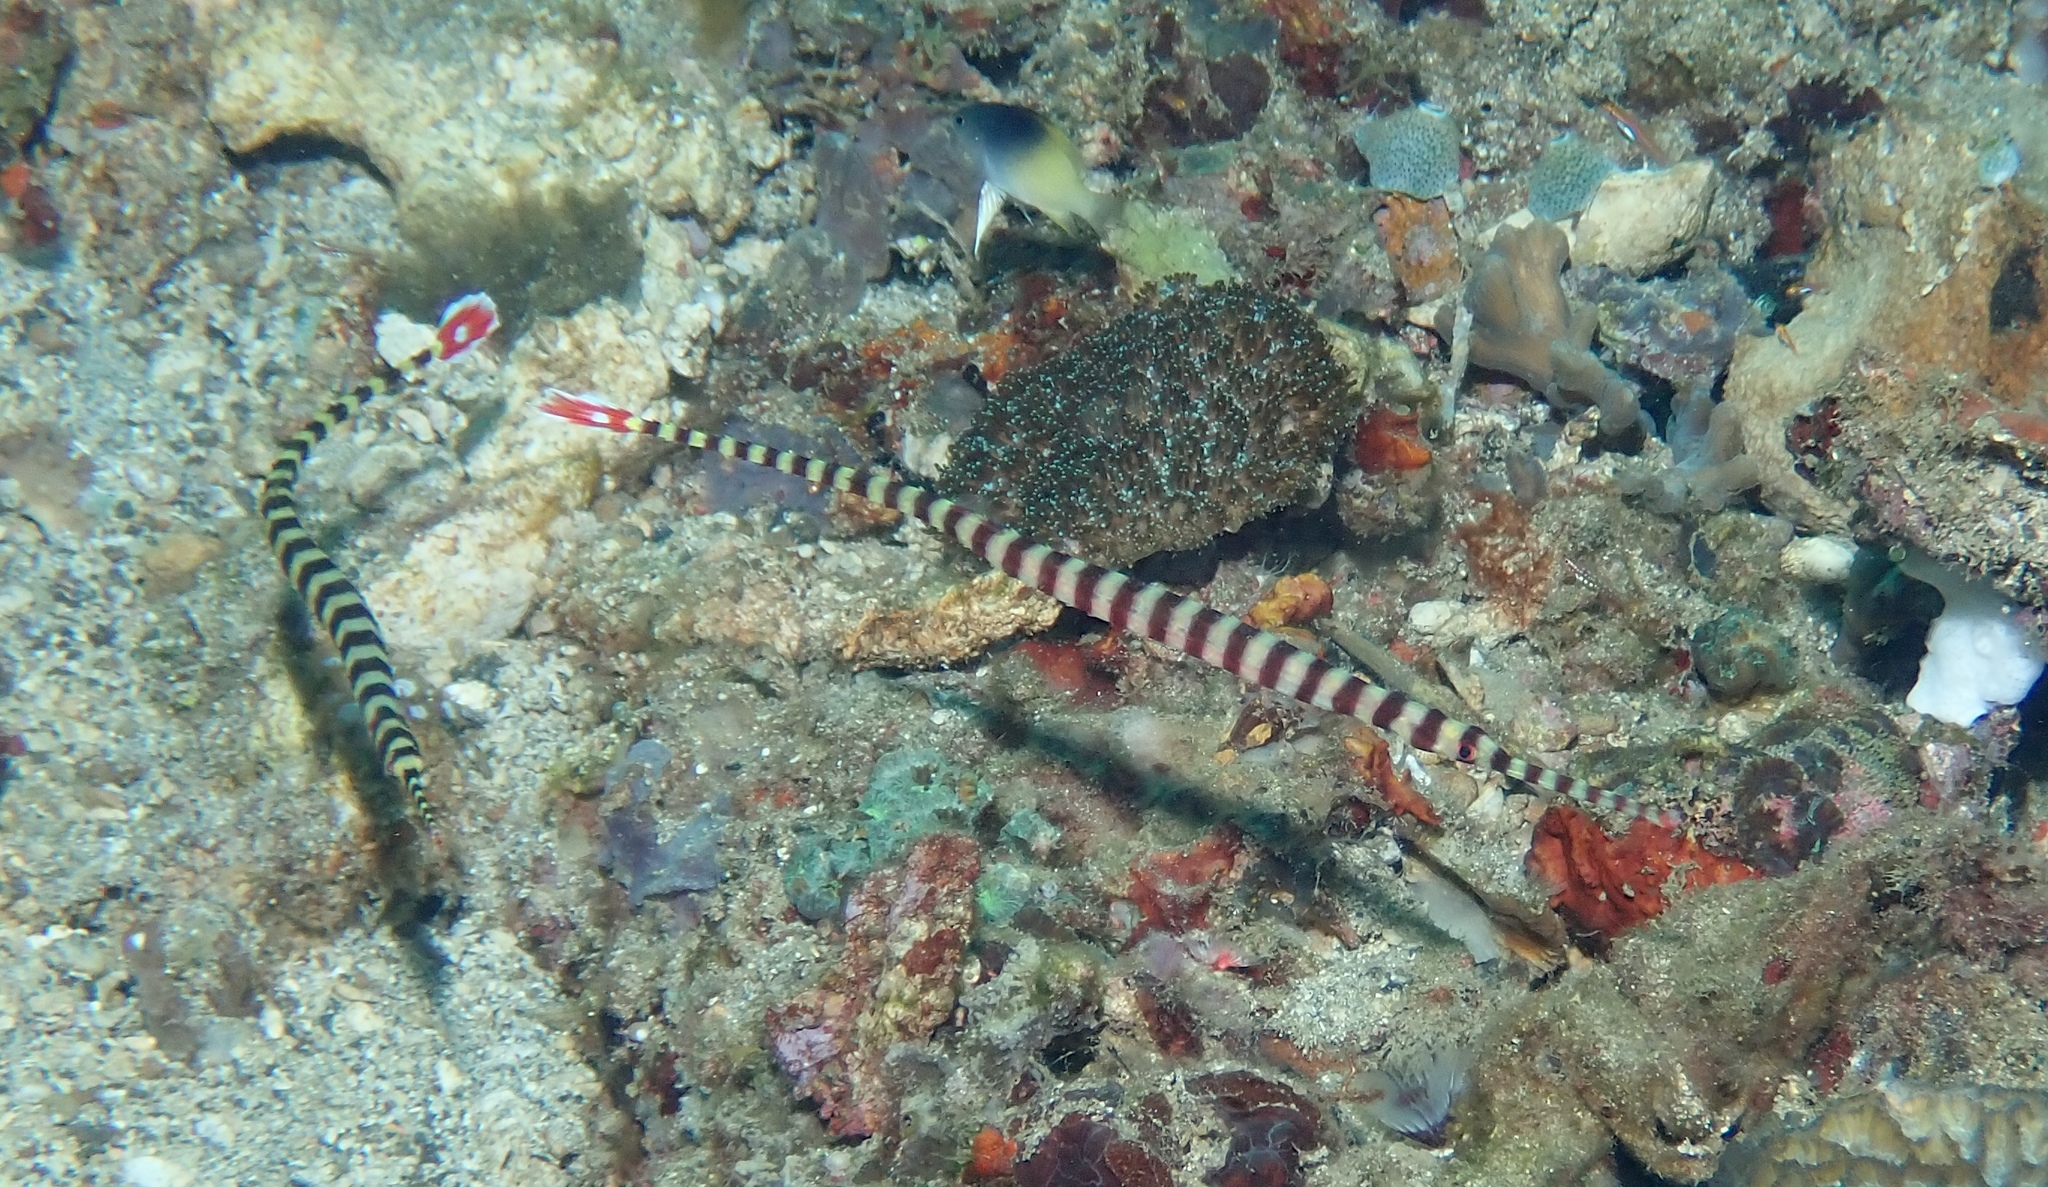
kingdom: Animalia
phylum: Chordata
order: Syngnathiformes
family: Syngnathidae
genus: Dunckerocampus
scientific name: Dunckerocampus dactyliophorus
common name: Banded pipefish
